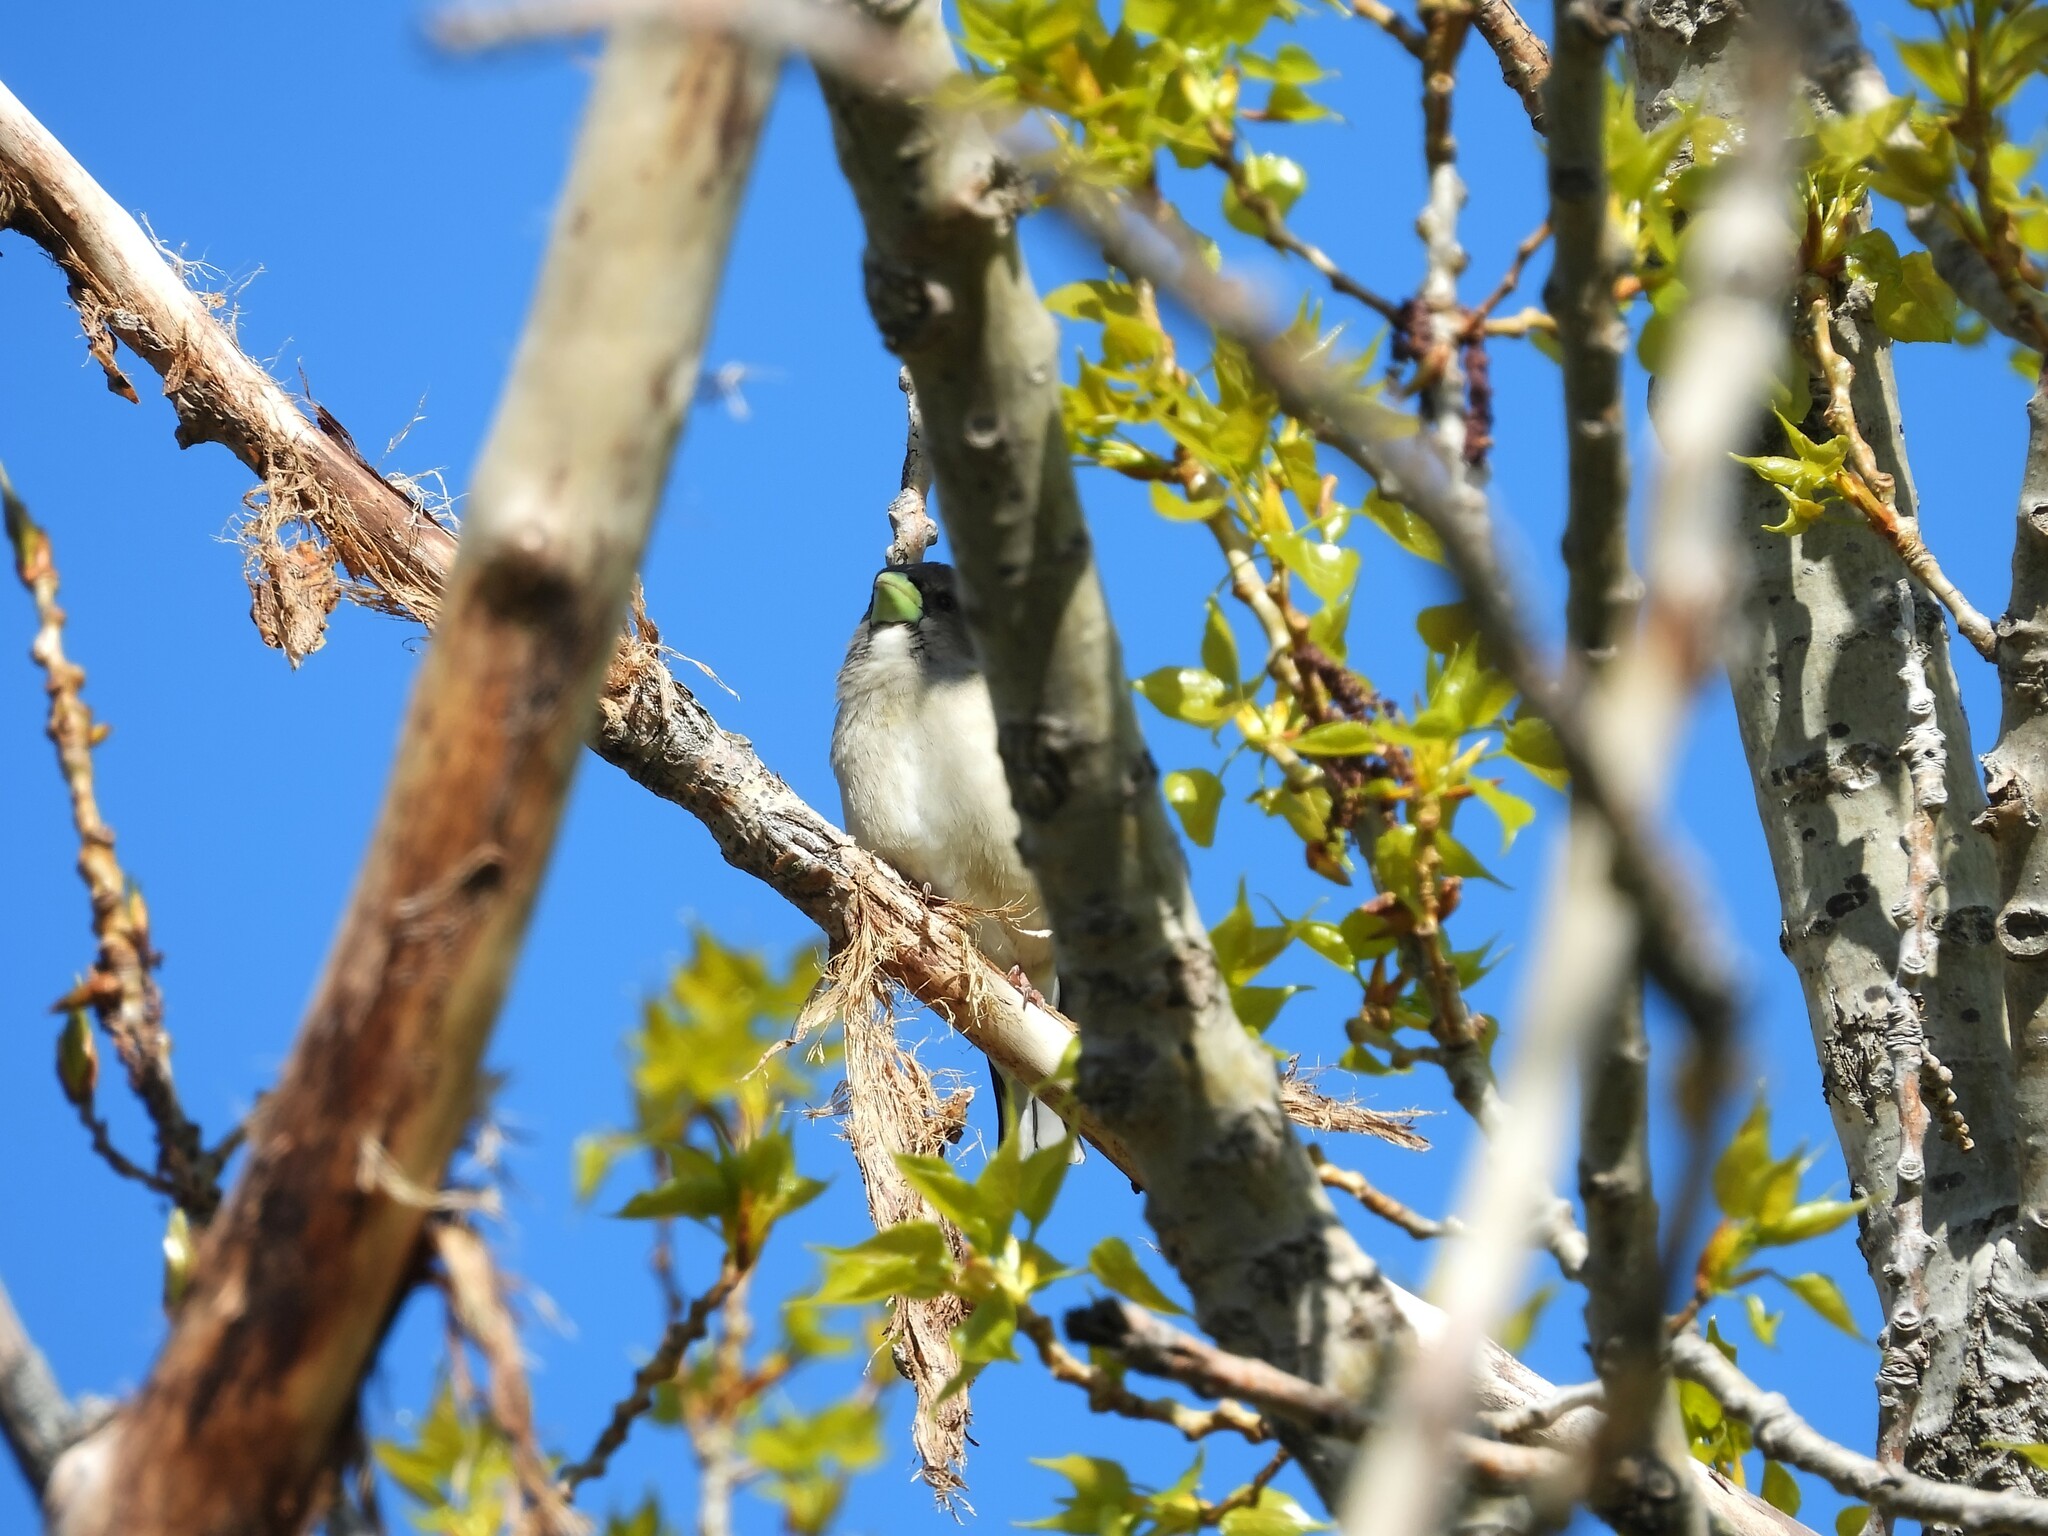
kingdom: Animalia
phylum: Chordata
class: Aves
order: Passeriformes
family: Fringillidae
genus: Hesperiphona
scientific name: Hesperiphona vespertina
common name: Evening grosbeak
